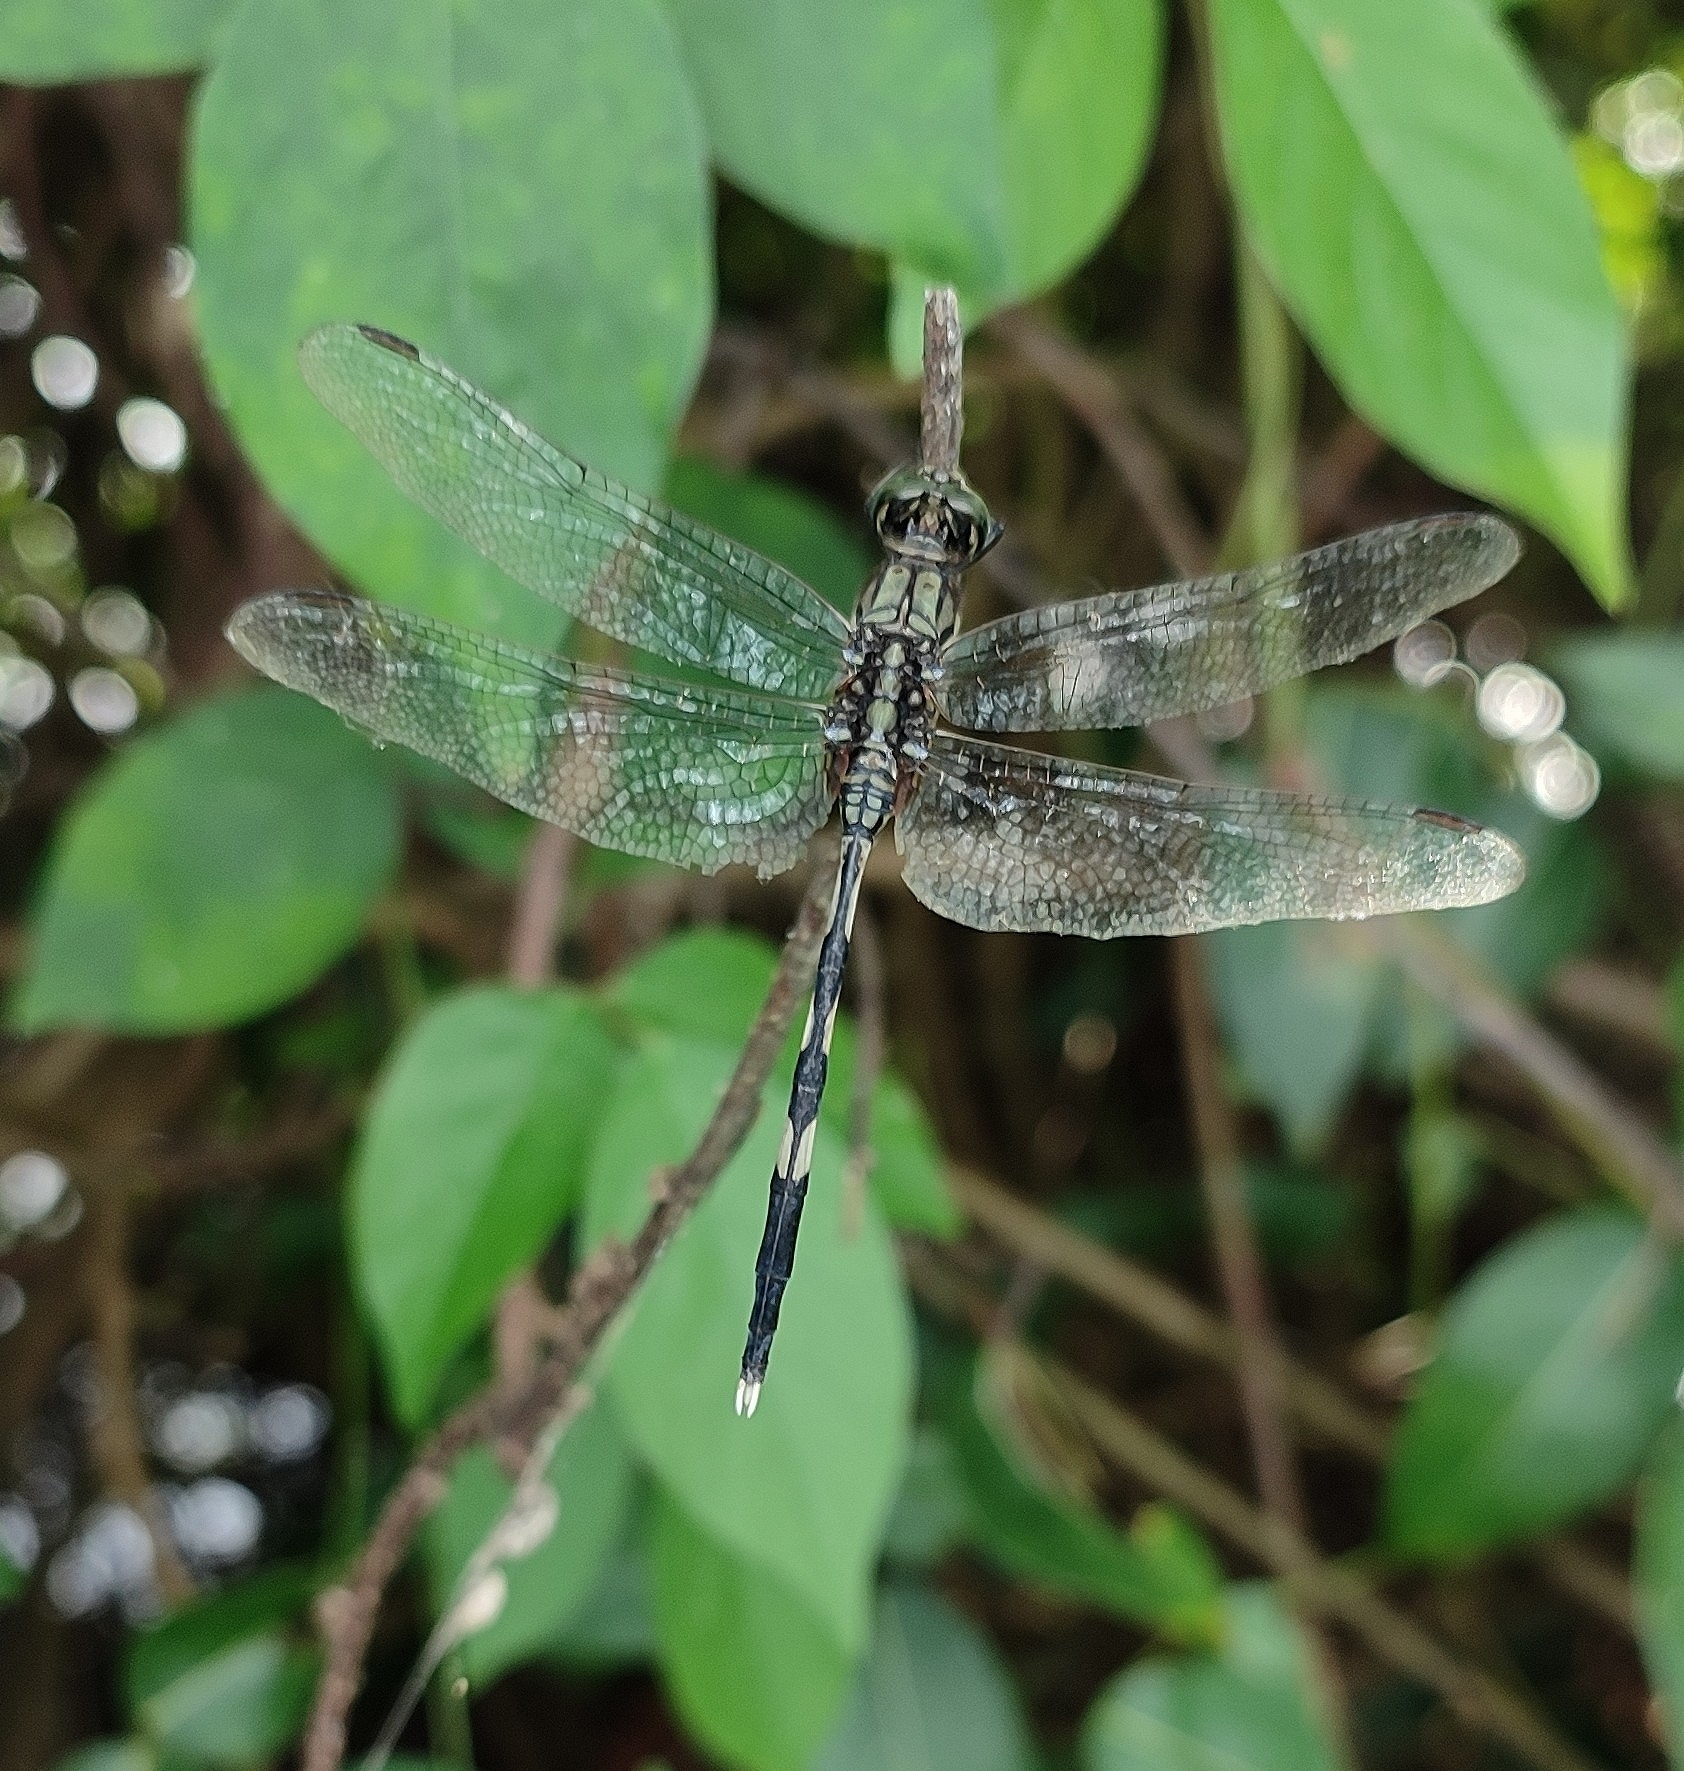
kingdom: Animalia
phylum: Arthropoda
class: Insecta
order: Odonata
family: Libellulidae
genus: Orthetrum
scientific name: Orthetrum sabina
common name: Slender skimmer
